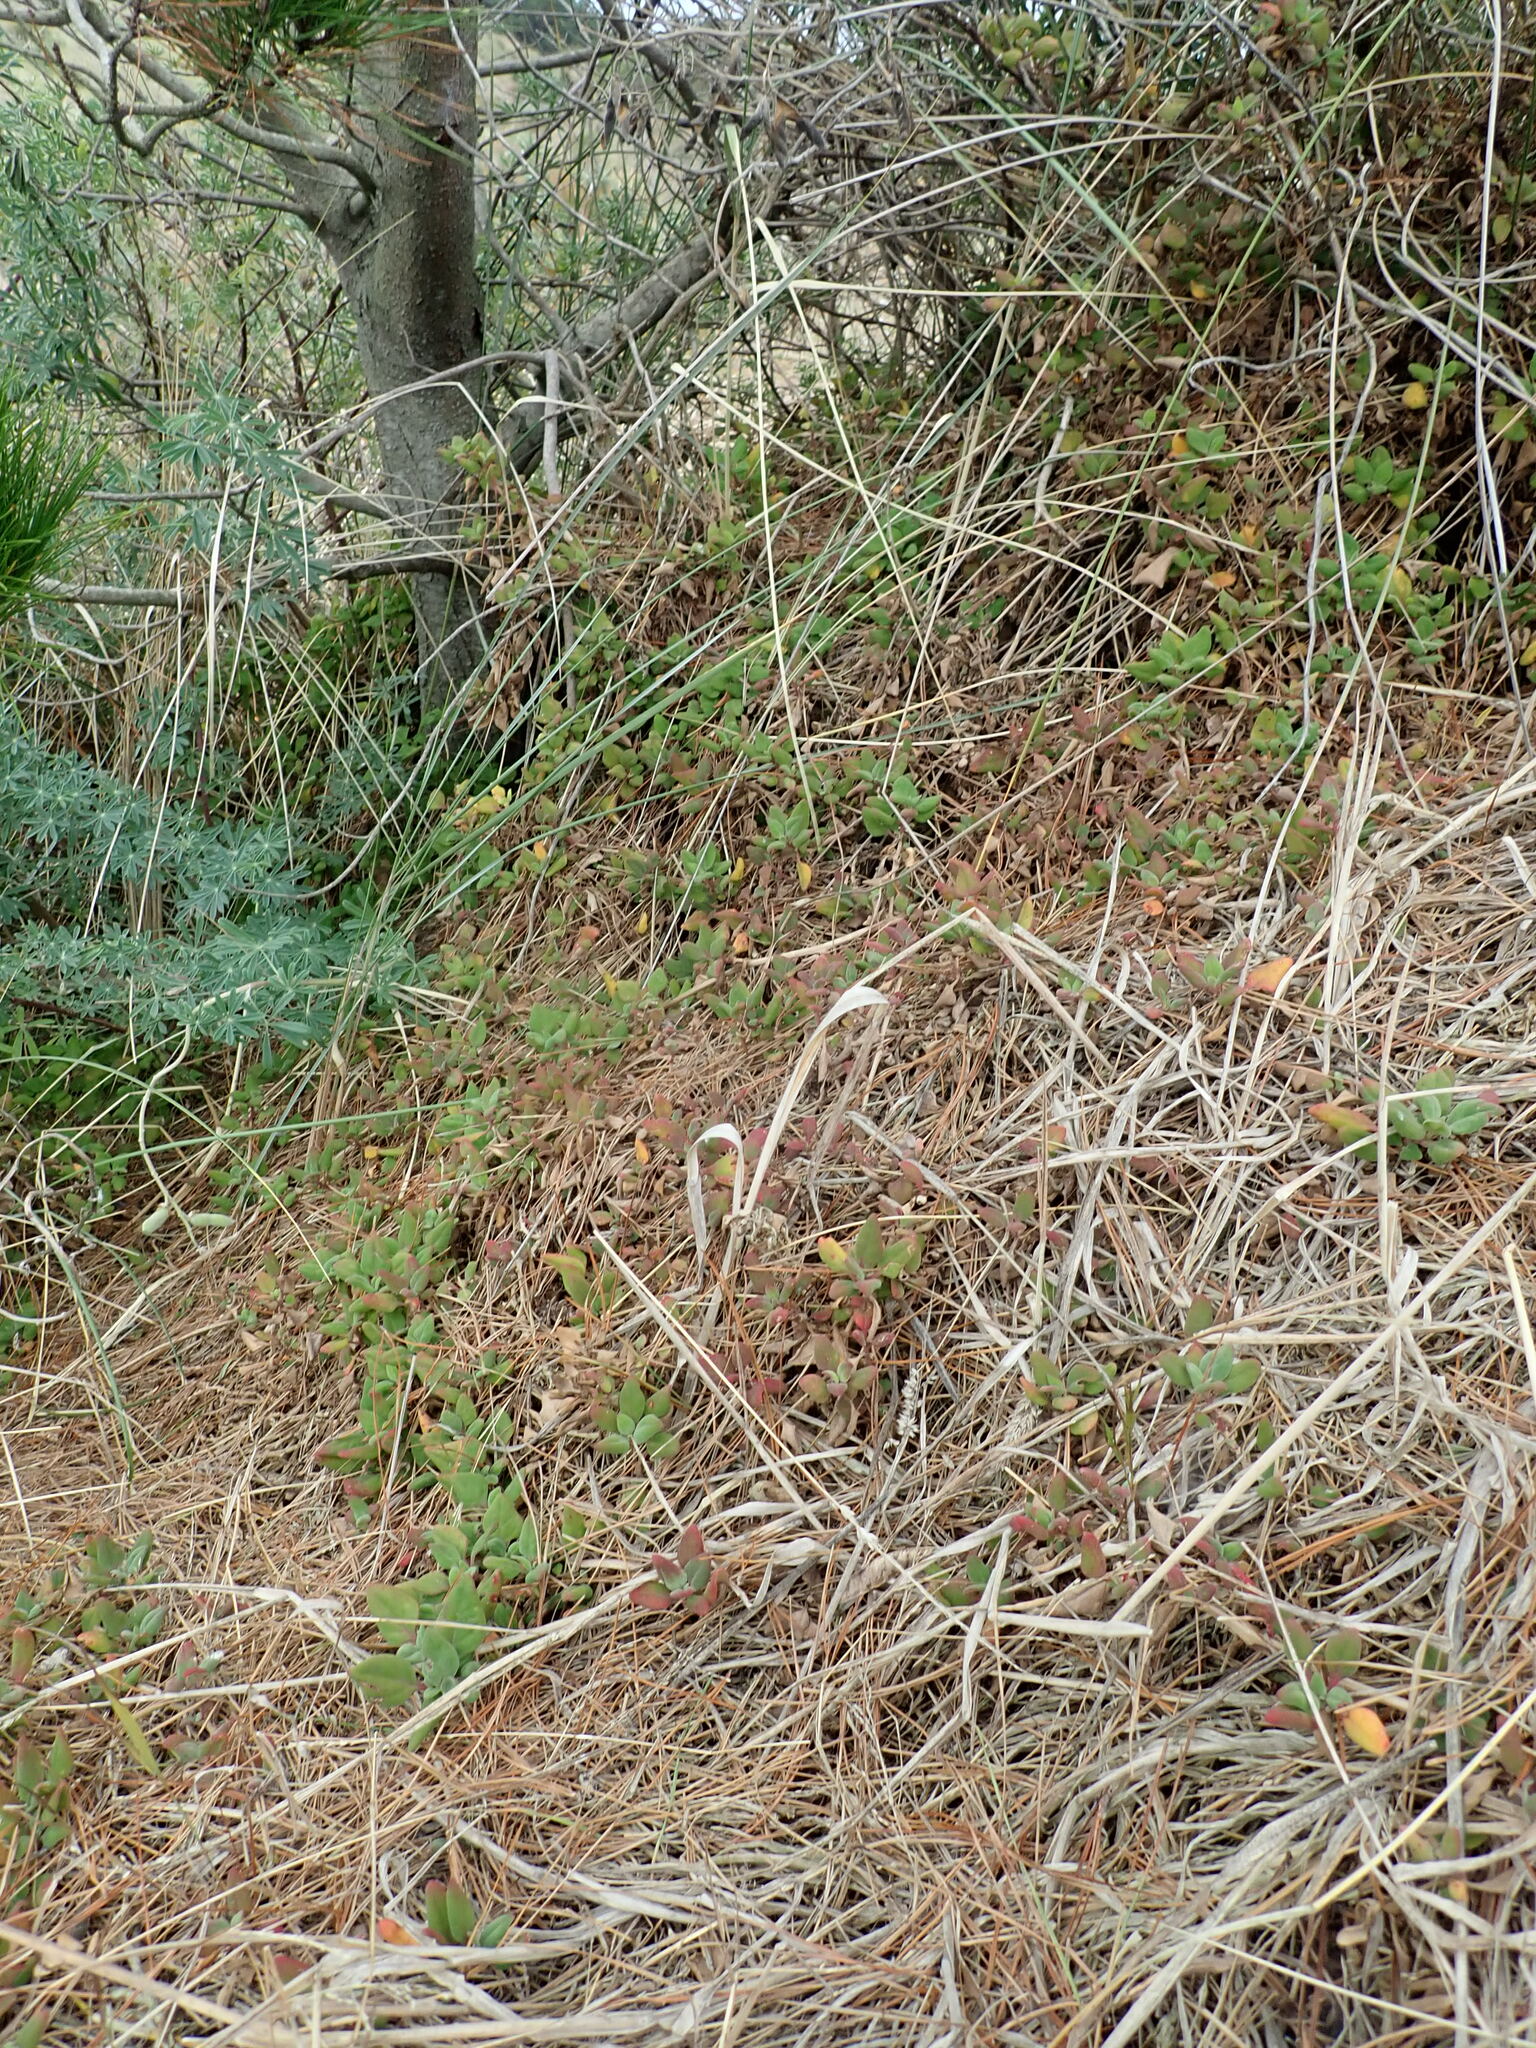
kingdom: Plantae
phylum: Tracheophyta
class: Magnoliopsida
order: Caryophyllales
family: Aizoaceae
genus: Tetragonia
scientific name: Tetragonia implexicoma
